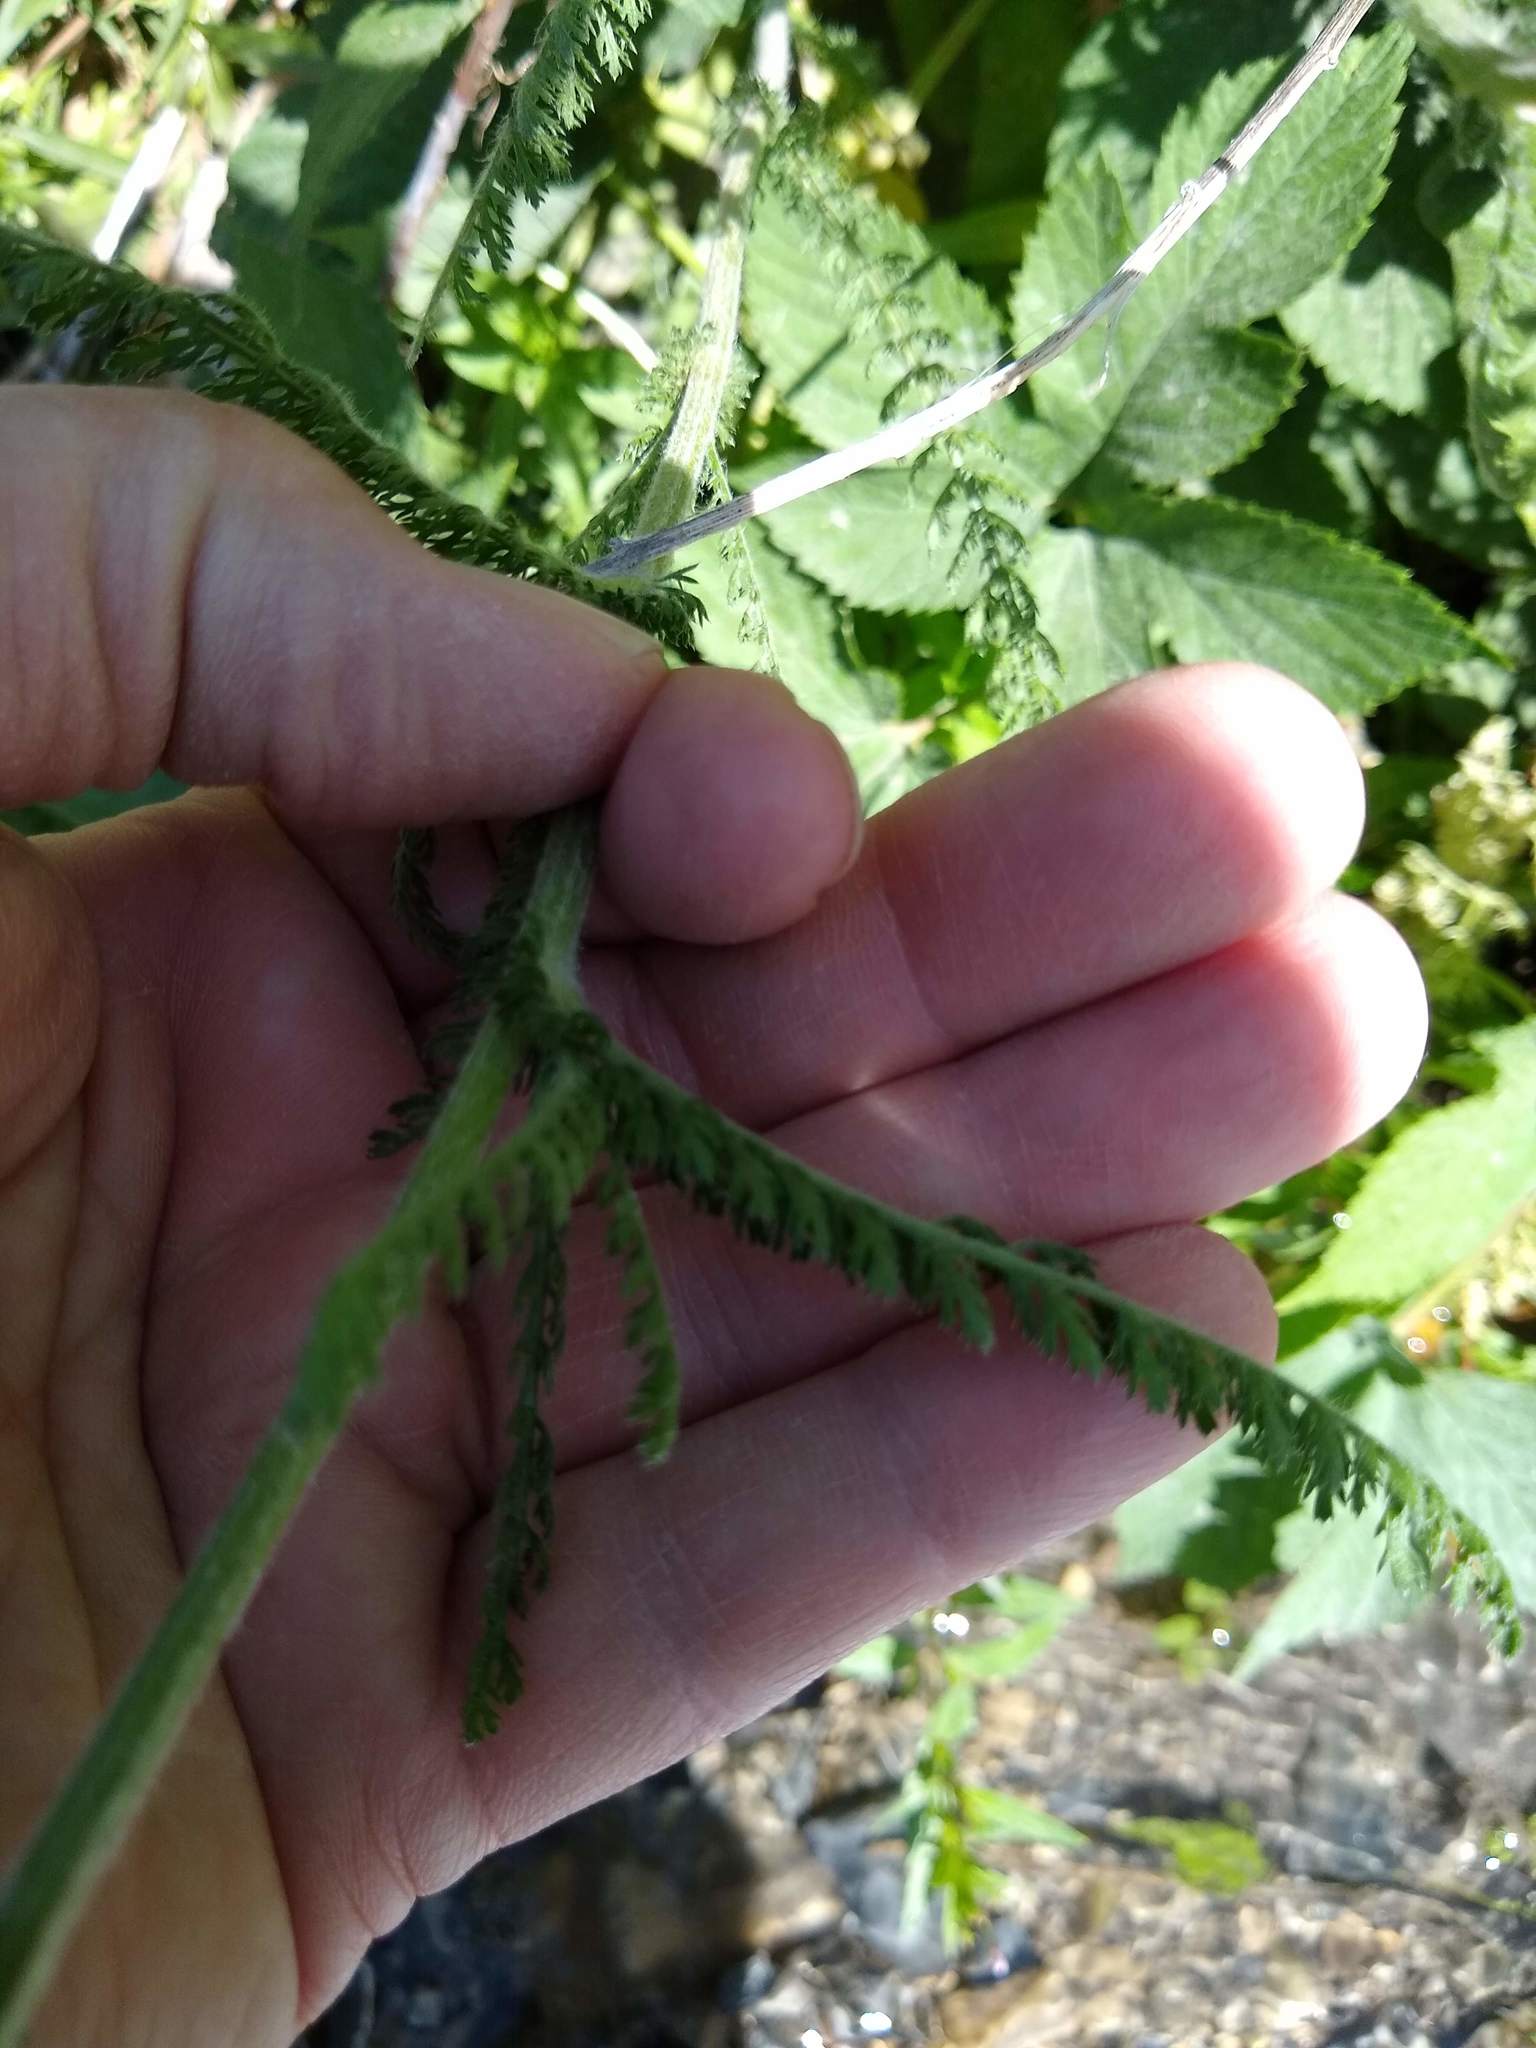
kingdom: Plantae
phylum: Tracheophyta
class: Magnoliopsida
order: Asterales
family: Asteraceae
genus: Achillea
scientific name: Achillea millefolium
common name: Yarrow
